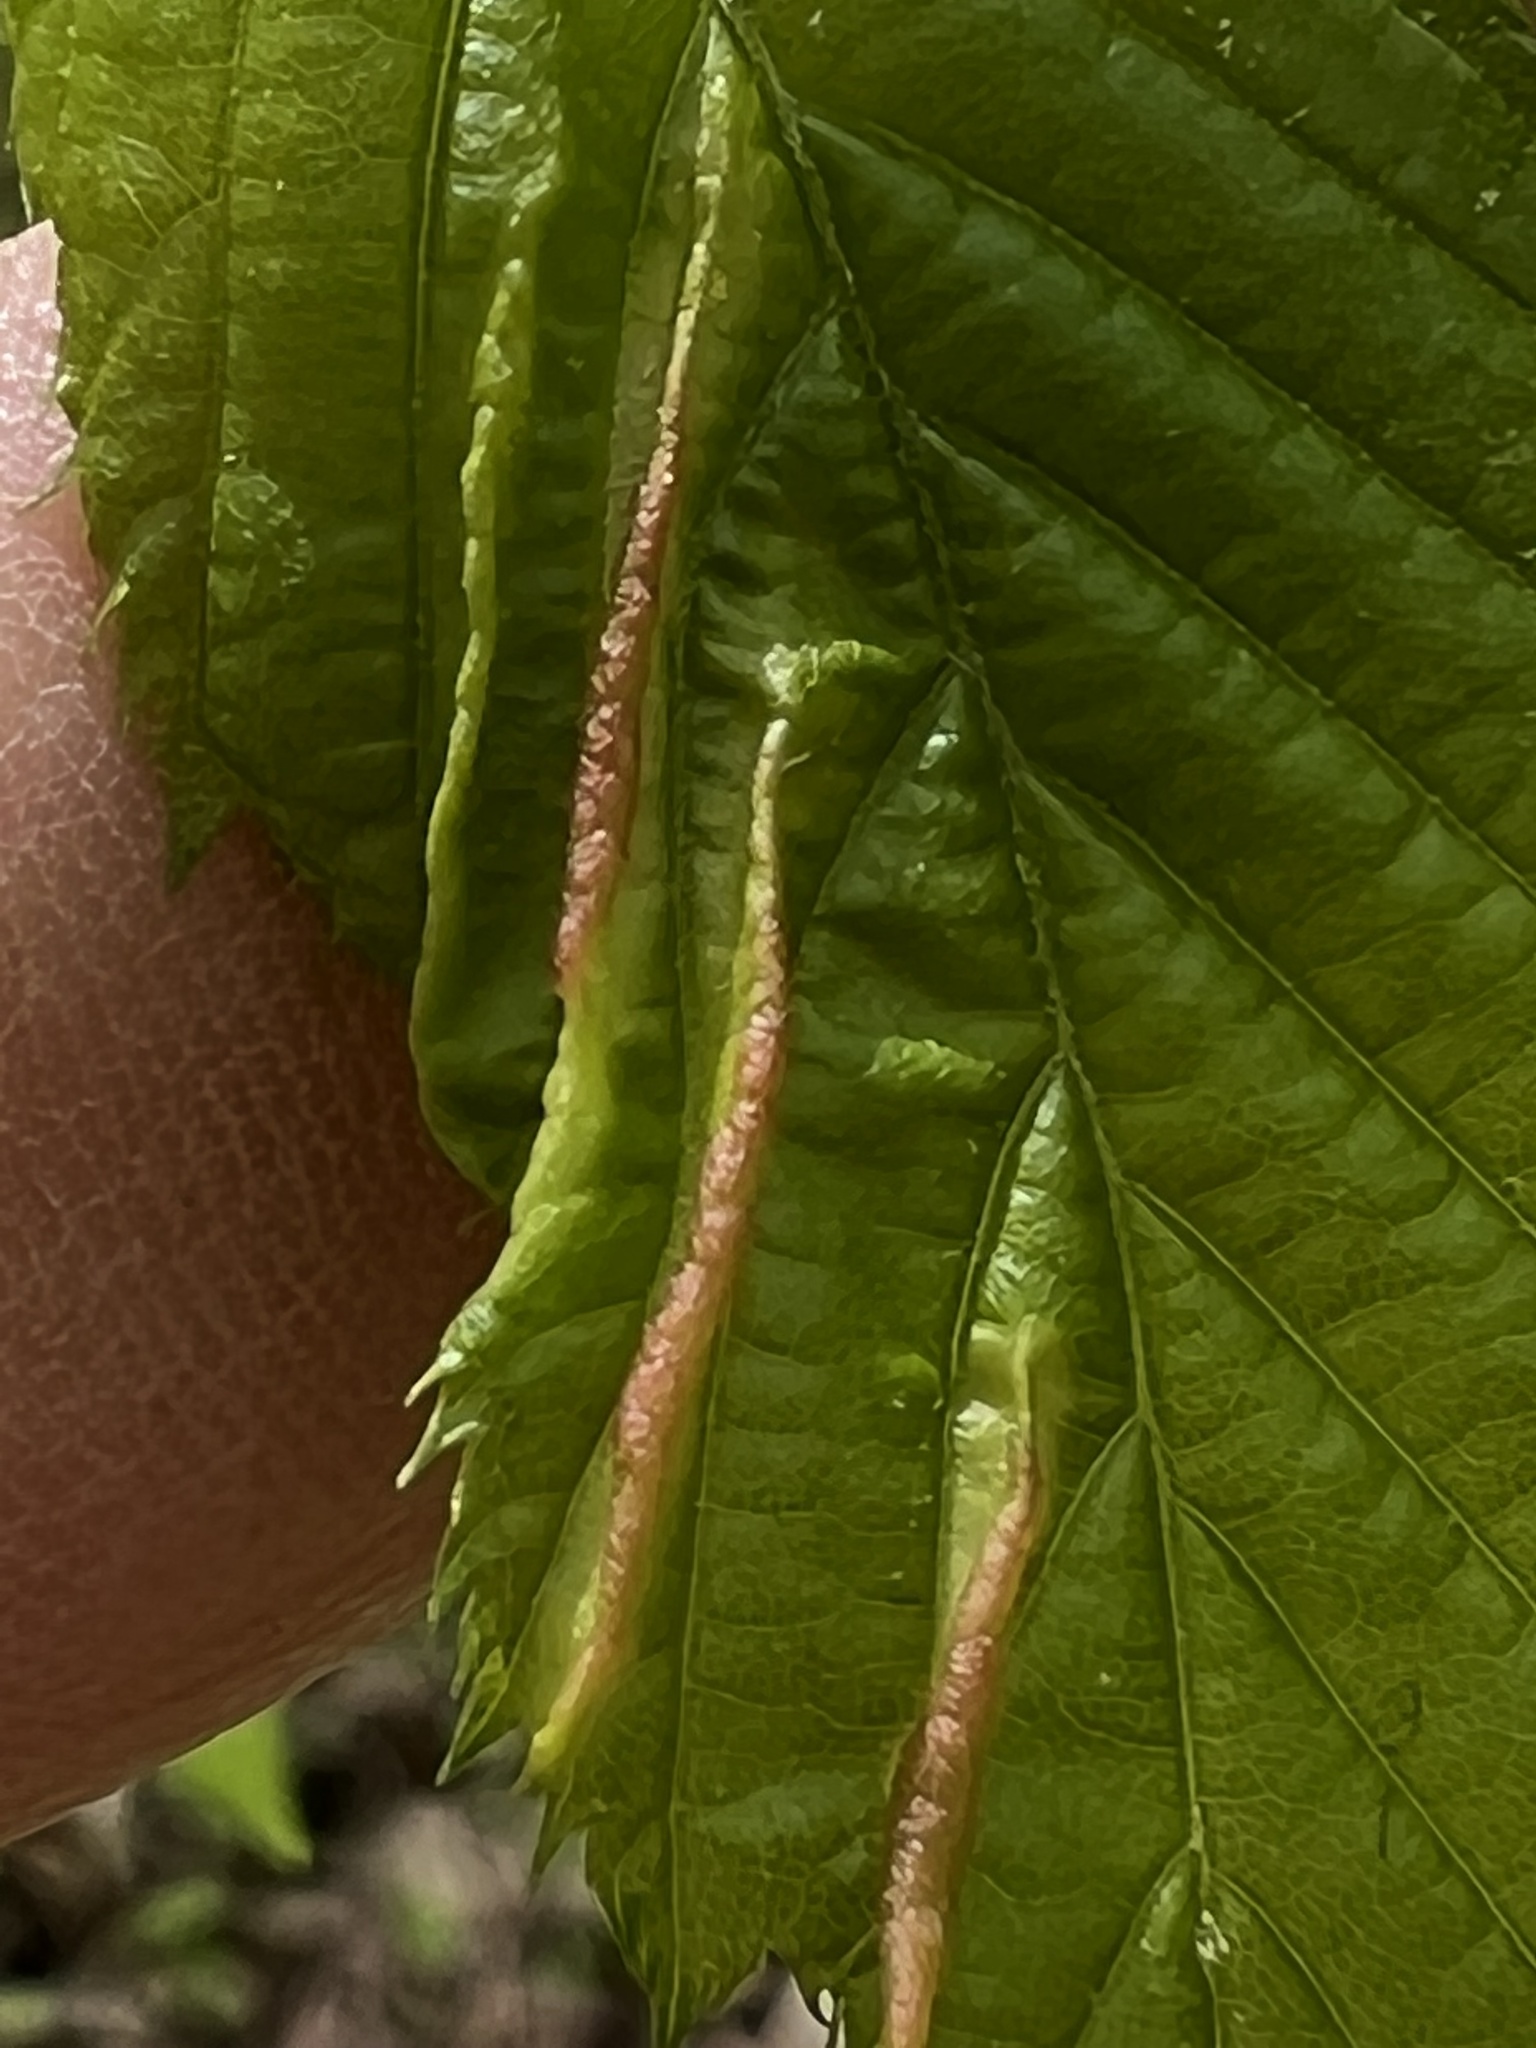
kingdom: Animalia
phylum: Arthropoda
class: Insecta
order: Diptera
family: Cecidomyiidae
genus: Dasineura
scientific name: Dasineura pudibunda
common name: Hornbeam leaf gall midge
